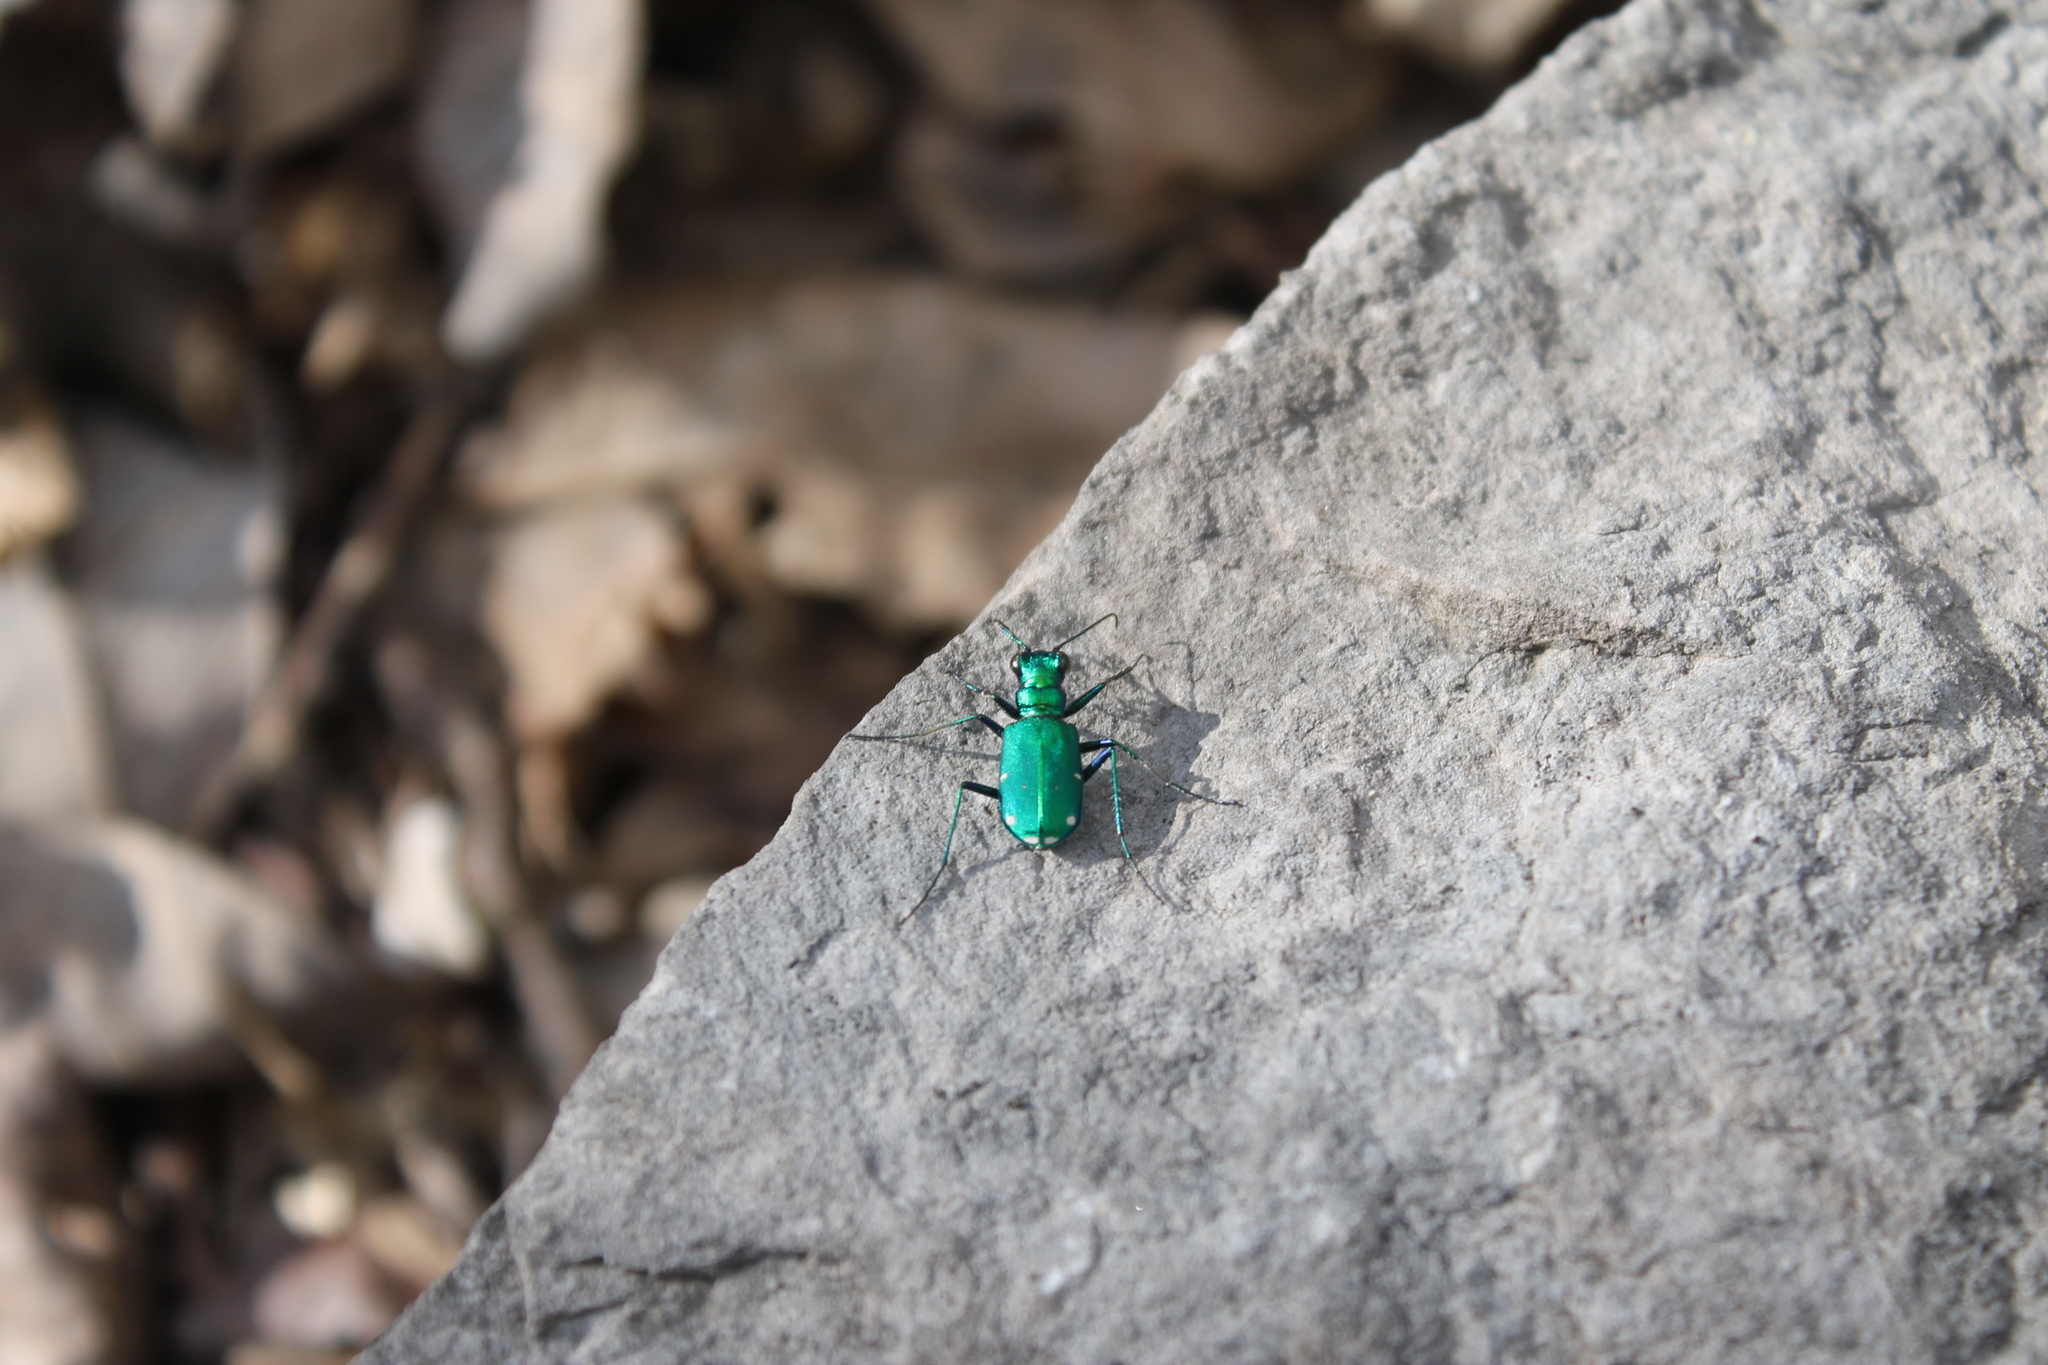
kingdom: Animalia
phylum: Arthropoda
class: Insecta
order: Coleoptera
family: Carabidae
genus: Cicindela
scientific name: Cicindela sexguttata
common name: Six-spotted tiger beetle
